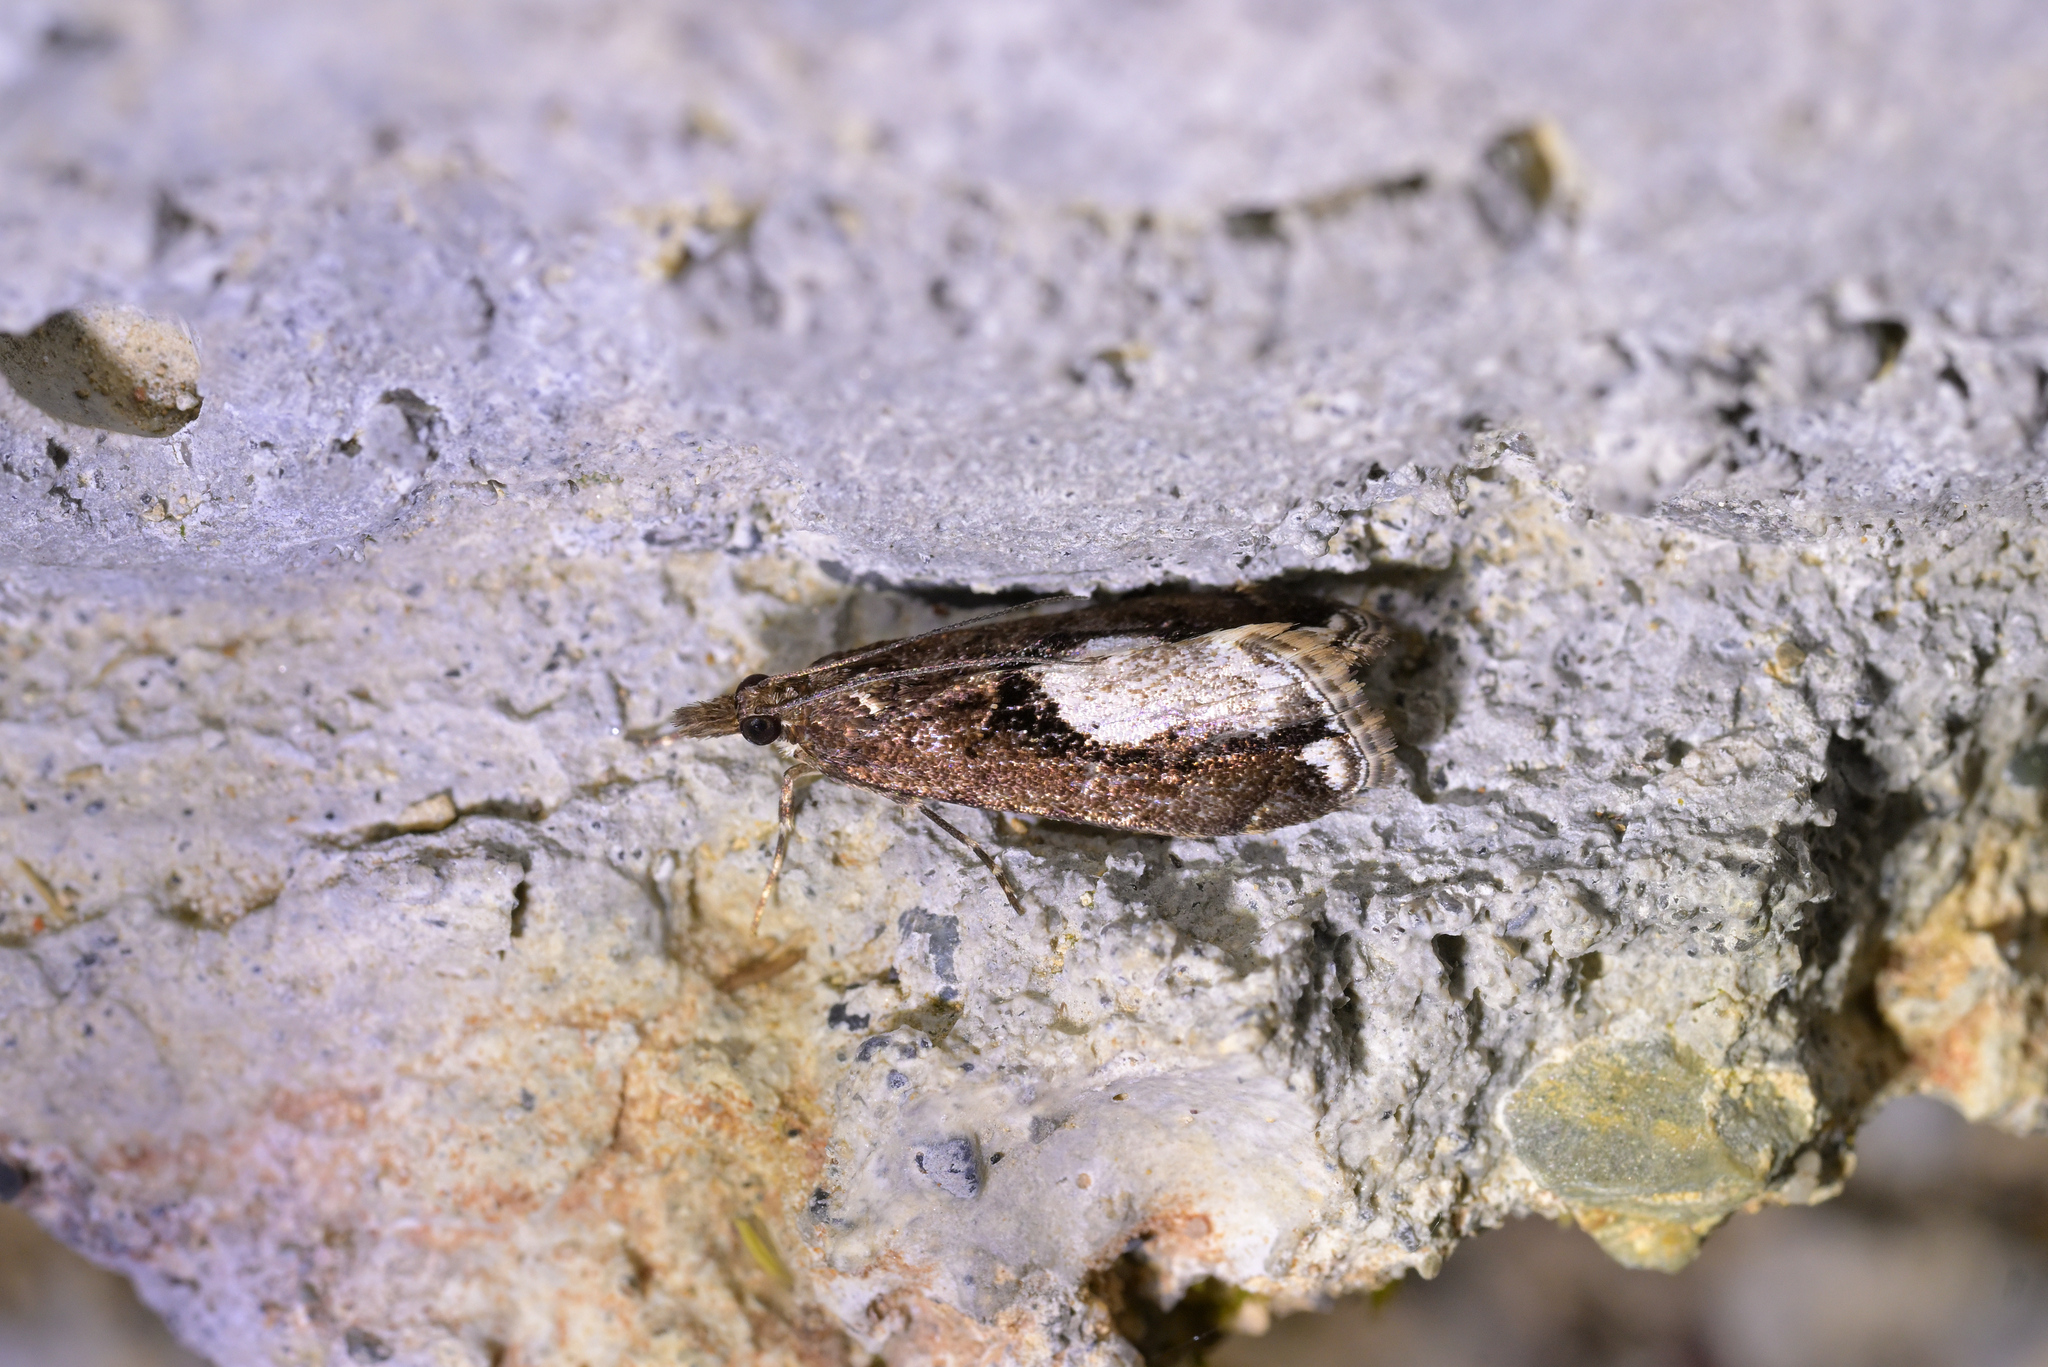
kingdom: Animalia
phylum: Arthropoda
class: Insecta
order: Lepidoptera
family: Crambidae
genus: Eudonia
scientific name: Eudonia hemiplaca
